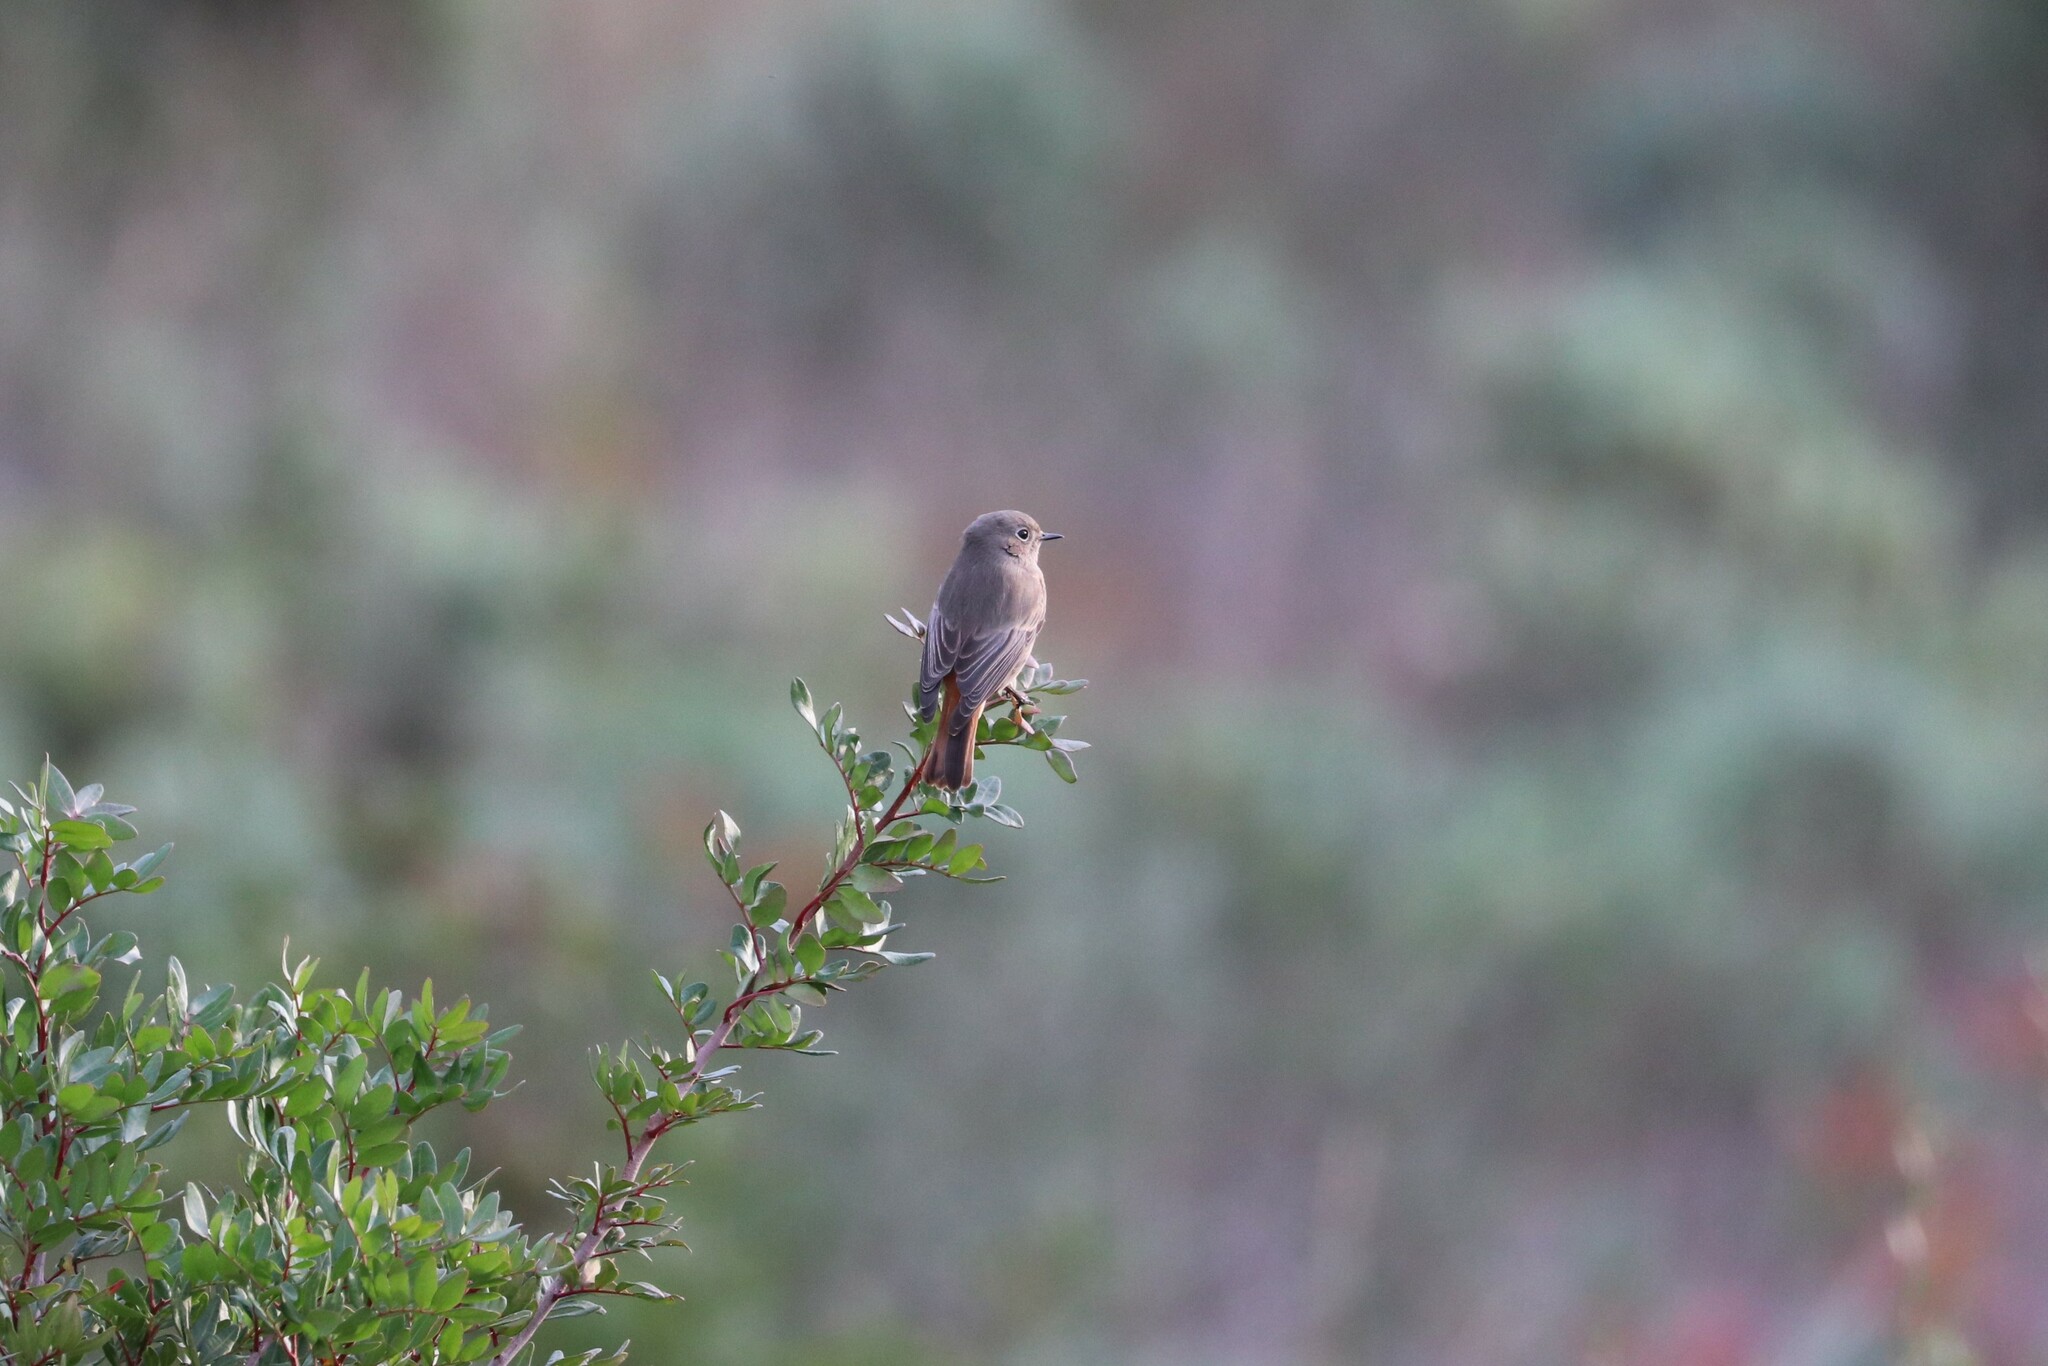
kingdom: Animalia
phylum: Chordata
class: Aves
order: Passeriformes
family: Muscicapidae
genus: Phoenicurus
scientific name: Phoenicurus ochruros
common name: Black redstart
